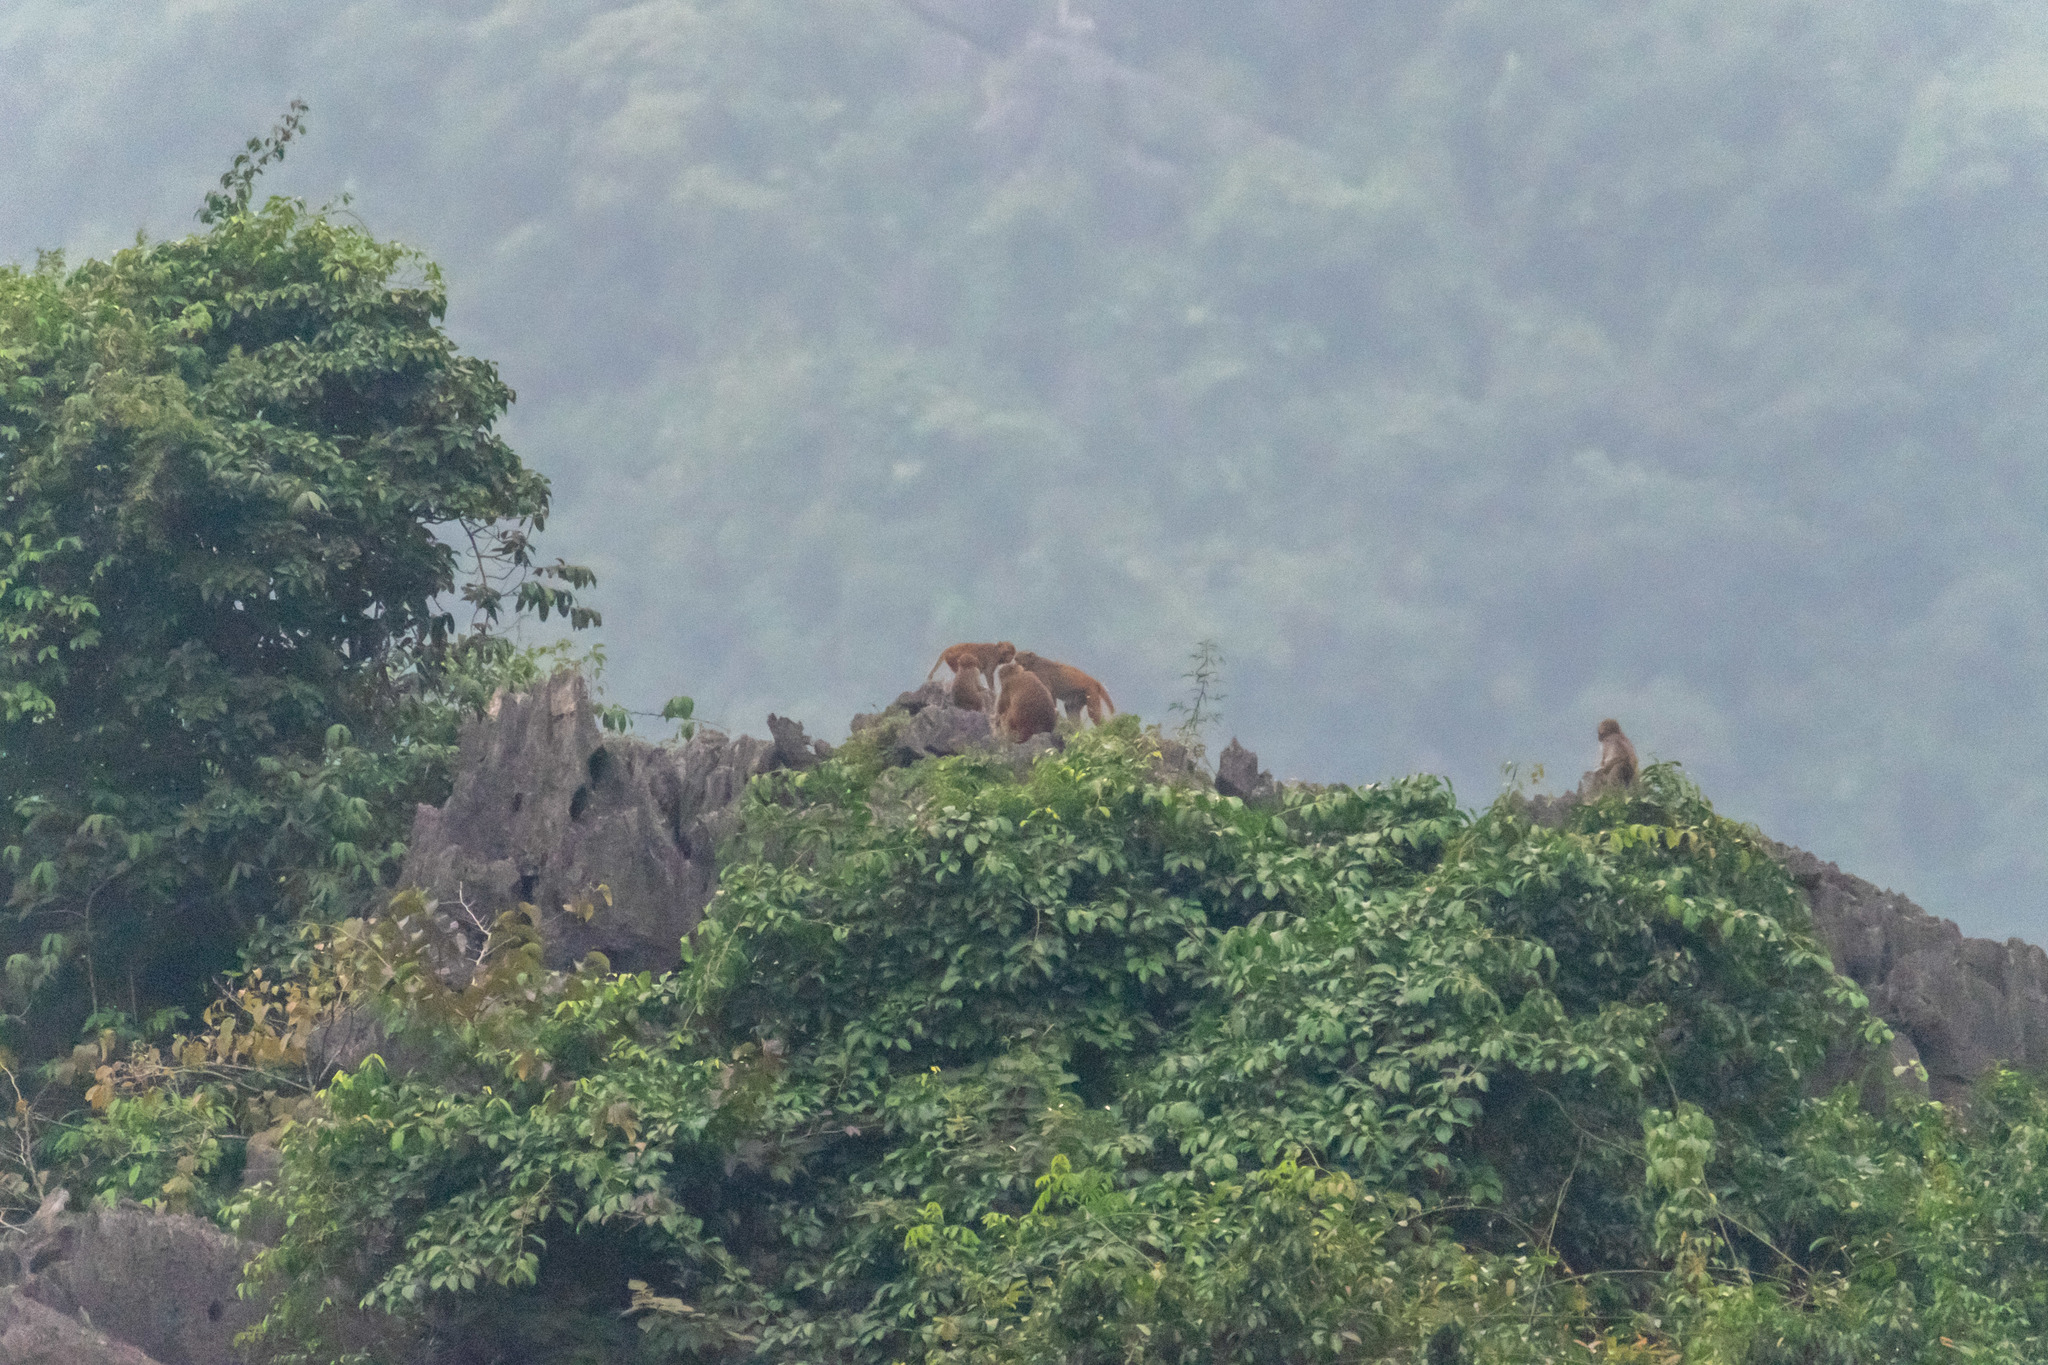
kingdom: Animalia
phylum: Chordata
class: Mammalia
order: Primates
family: Cercopithecidae
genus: Macaca
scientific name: Macaca mulatta
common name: Rhesus monkey
